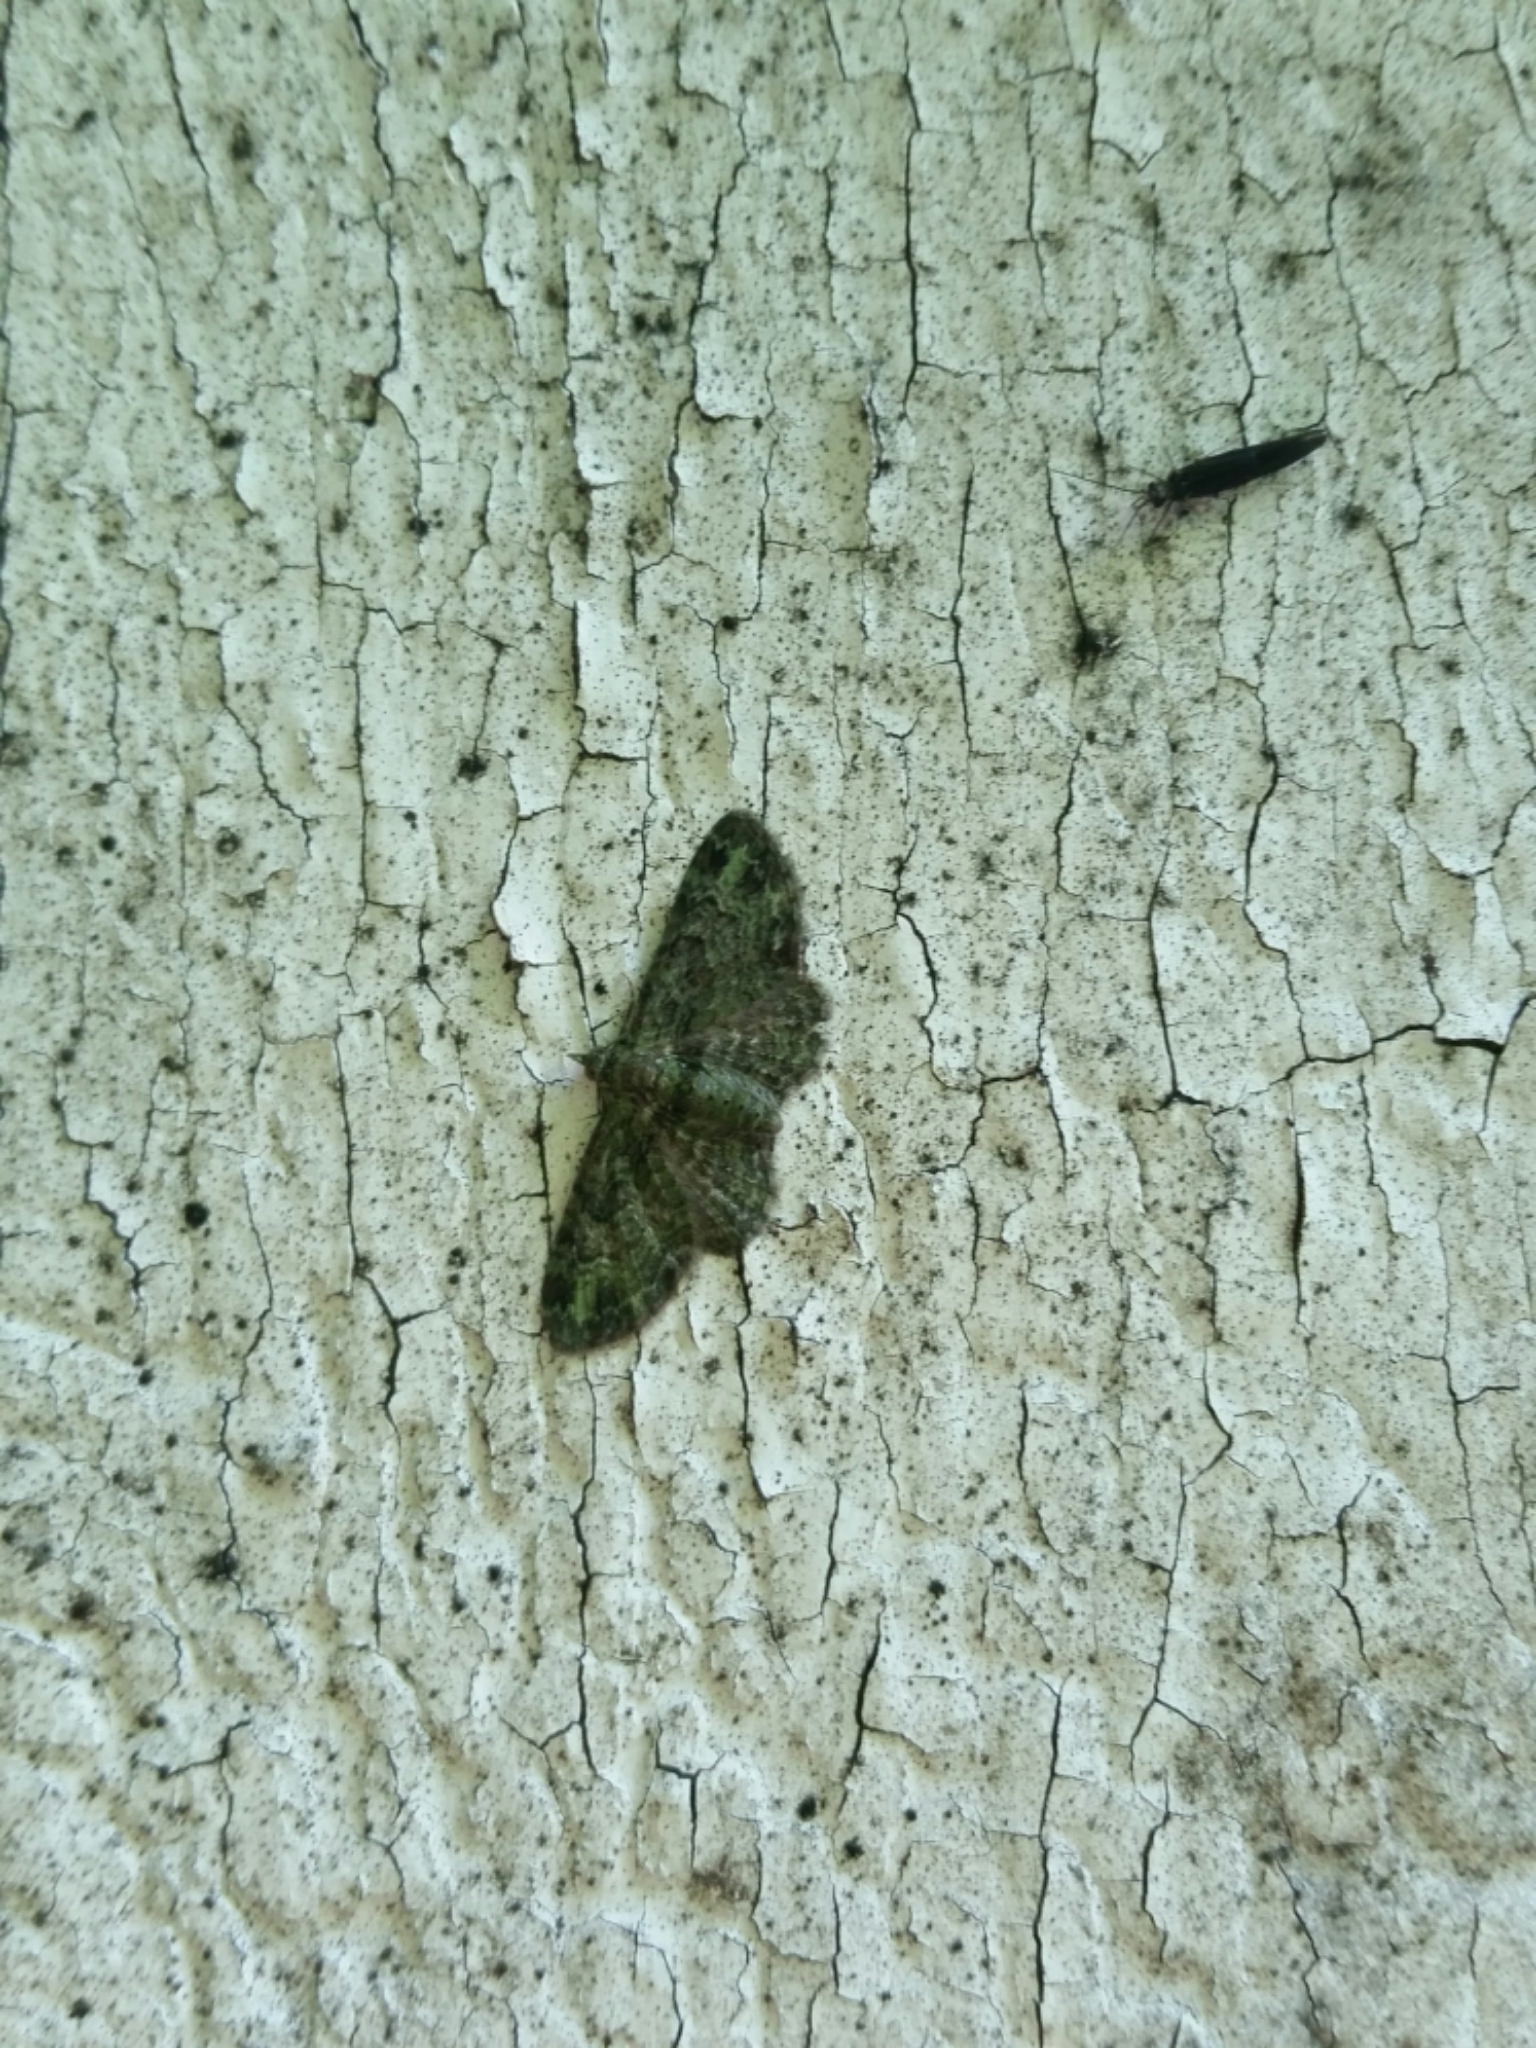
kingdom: Animalia
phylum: Arthropoda
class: Insecta
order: Lepidoptera
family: Geometridae
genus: Pasiphila
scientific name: Pasiphila rectangulata
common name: Green pug
